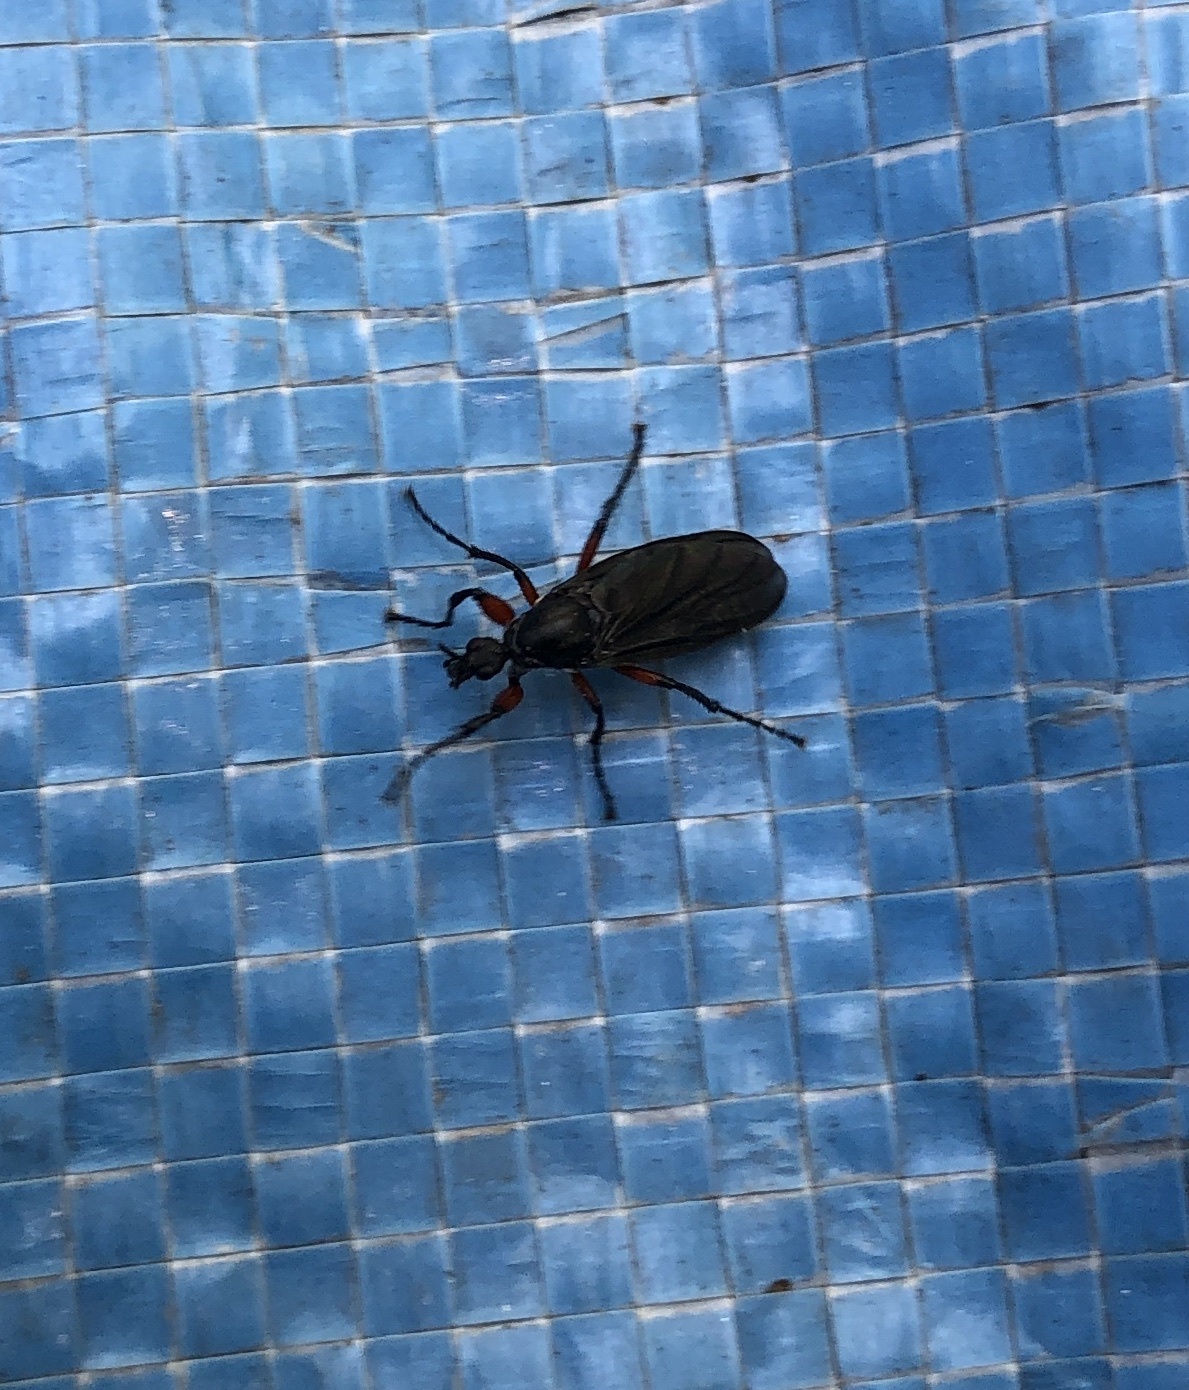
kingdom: Animalia
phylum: Arthropoda
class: Insecta
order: Diptera
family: Bibionidae
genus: Bibio
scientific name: Bibio femoratus
